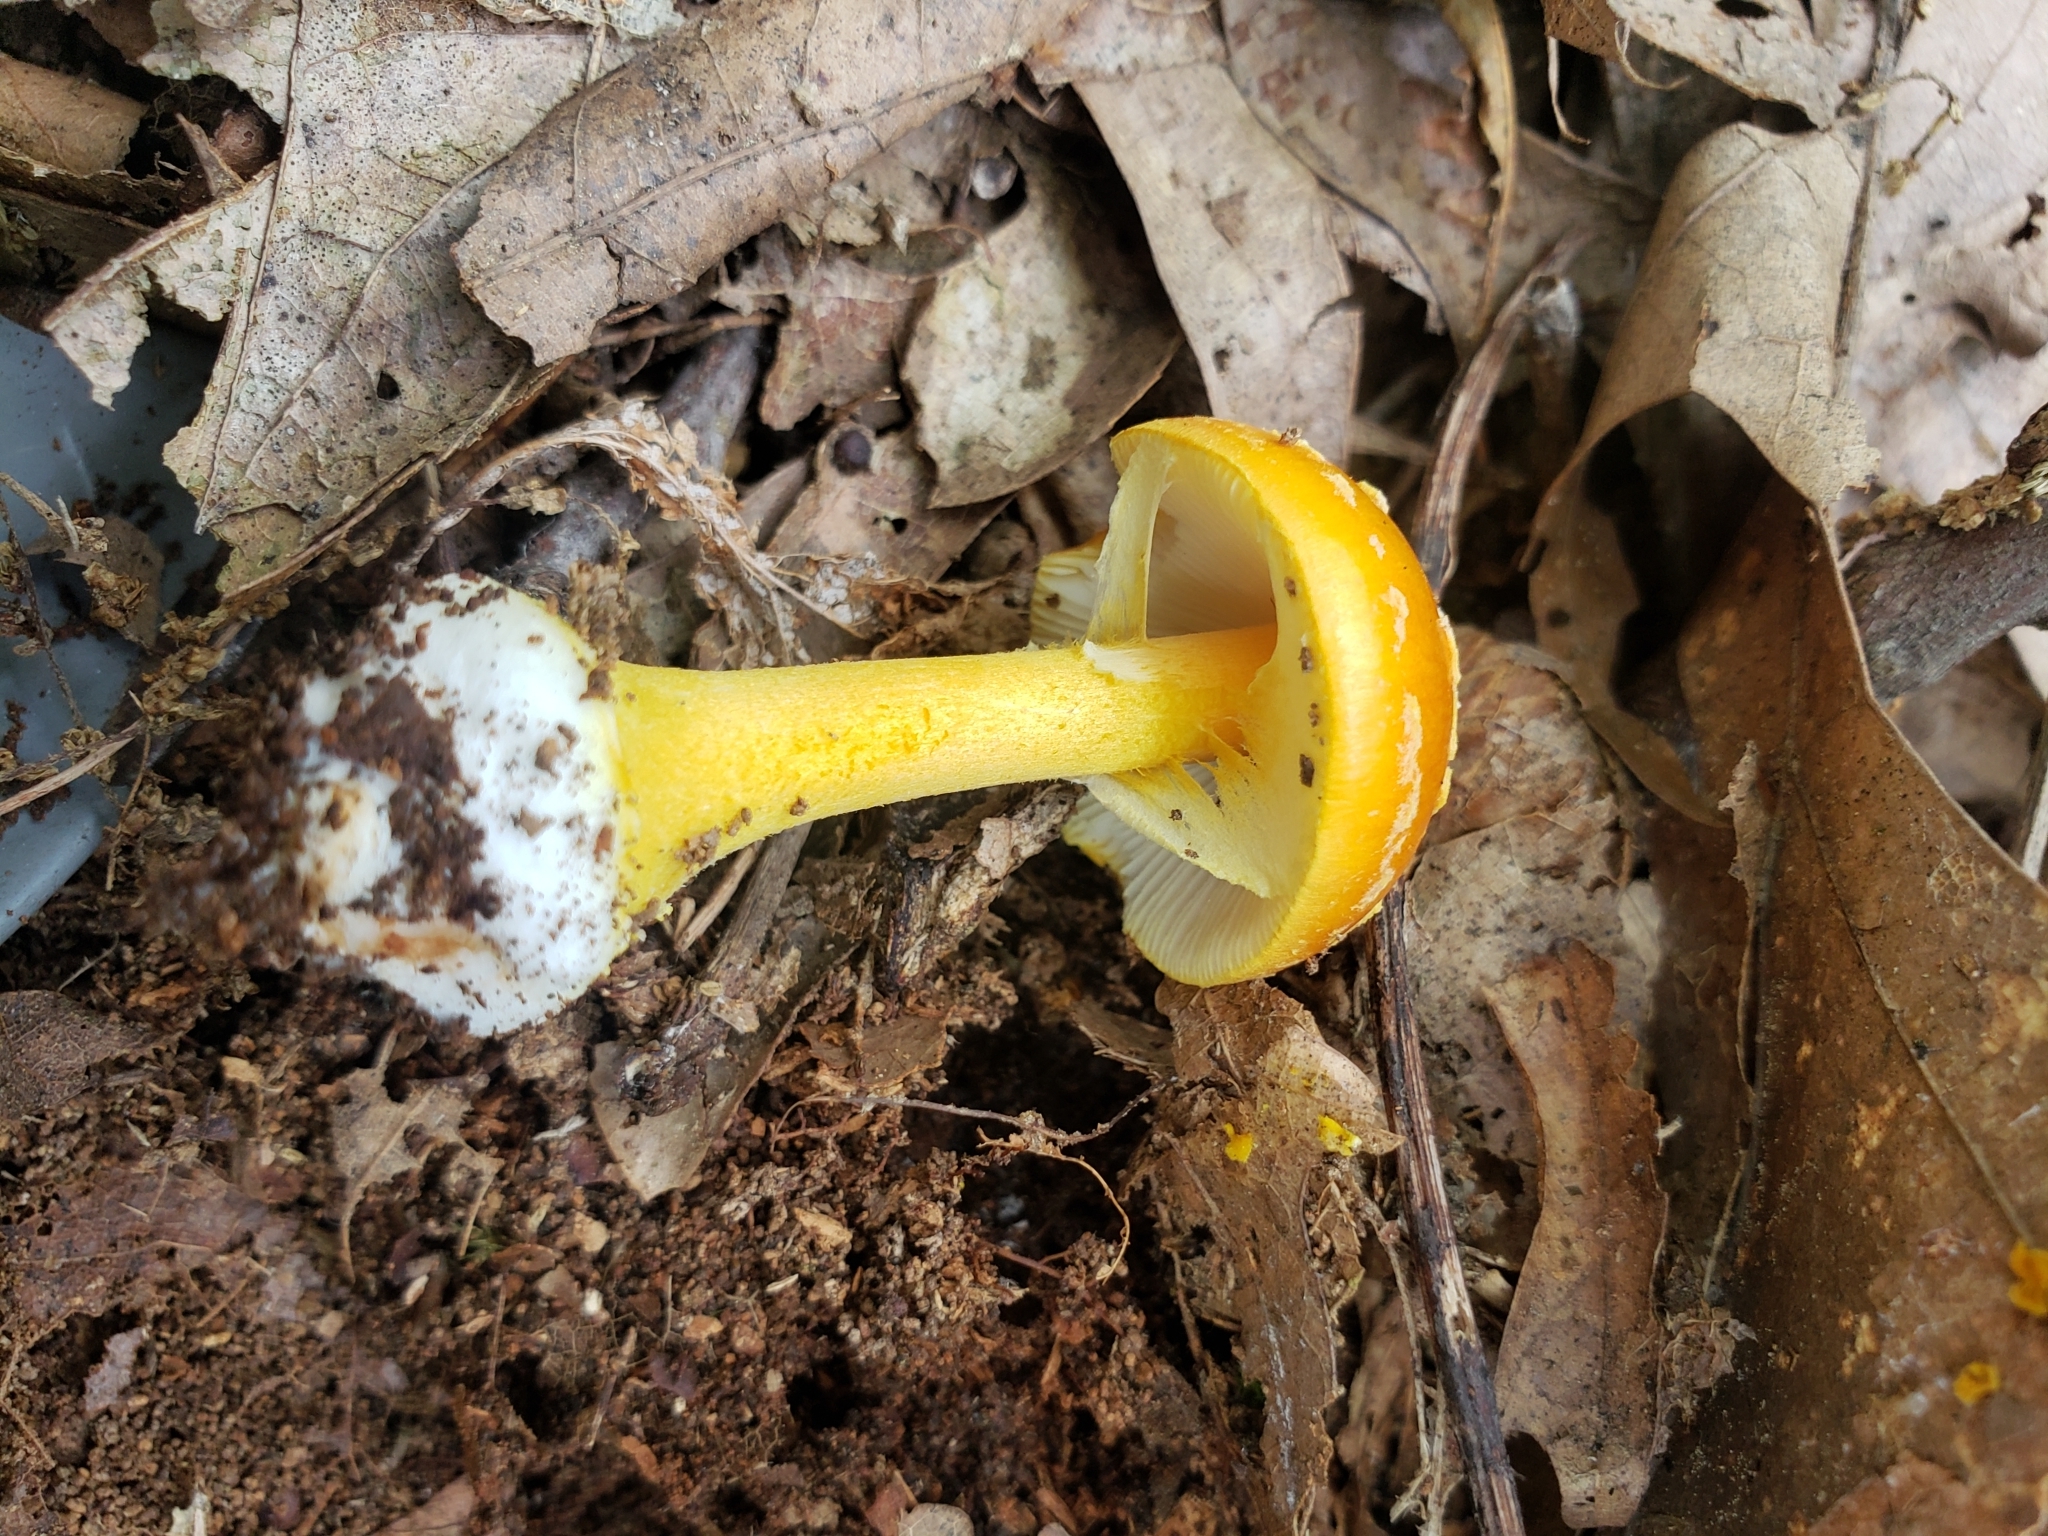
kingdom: Fungi
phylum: Basidiomycota
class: Agaricomycetes
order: Agaricales
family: Amanitaceae
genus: Amanita
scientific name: Amanita flavoconia
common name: Yellow patches
